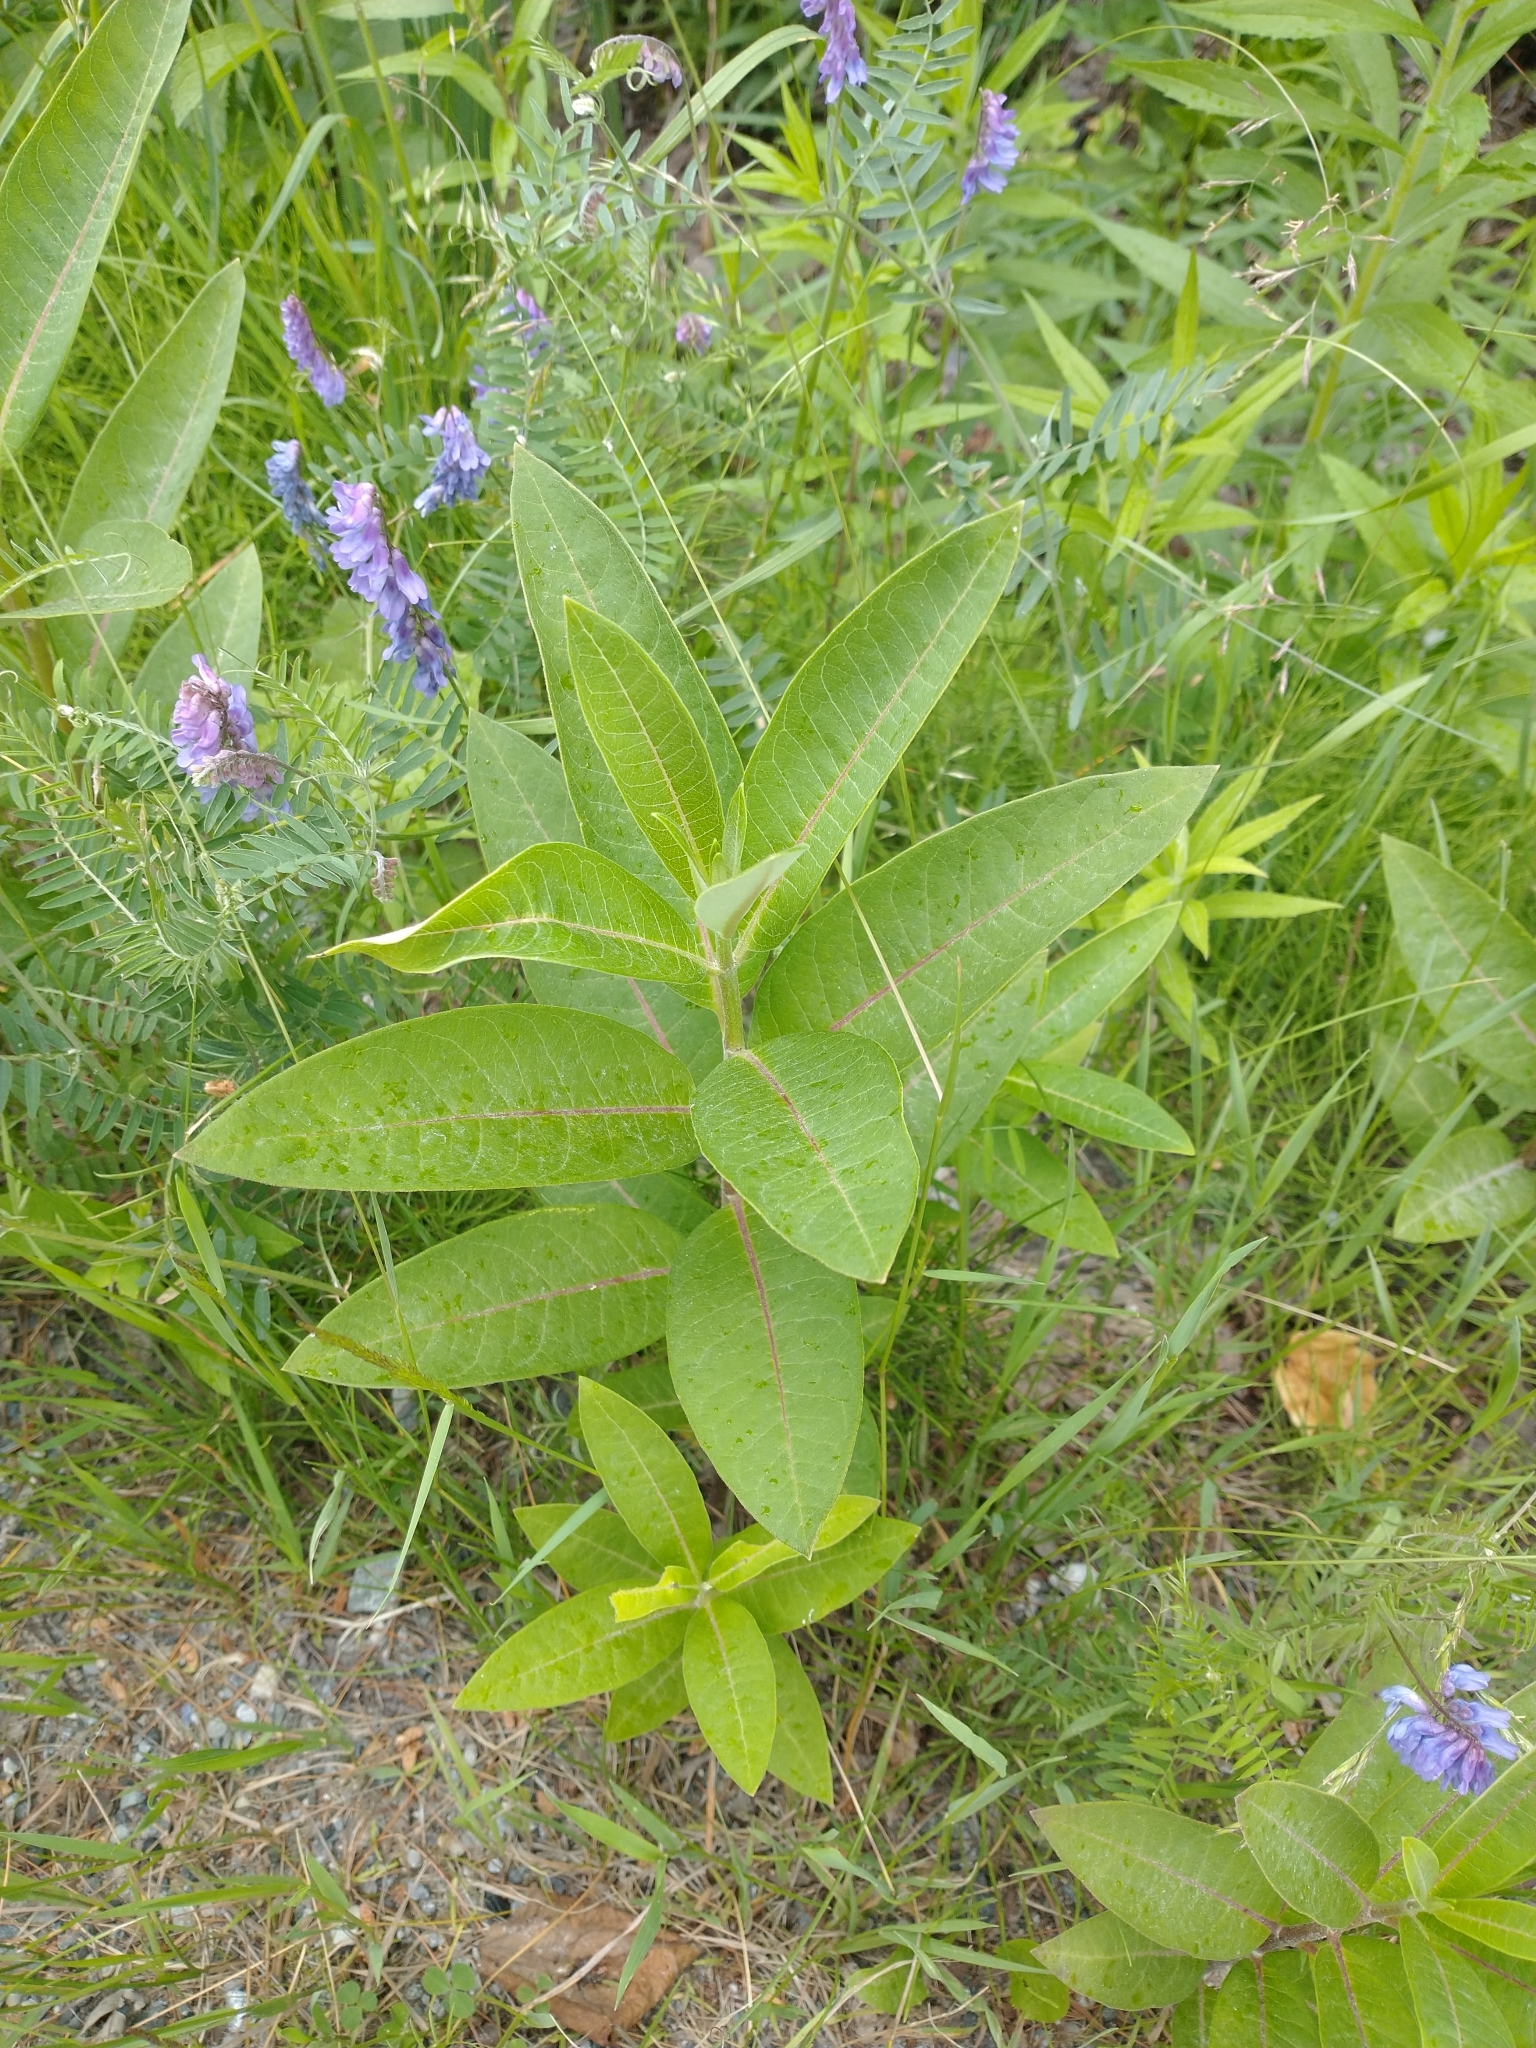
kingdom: Plantae
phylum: Tracheophyta
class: Magnoliopsida
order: Gentianales
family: Apocynaceae
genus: Asclepias
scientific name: Asclepias syriaca
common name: Common milkweed
